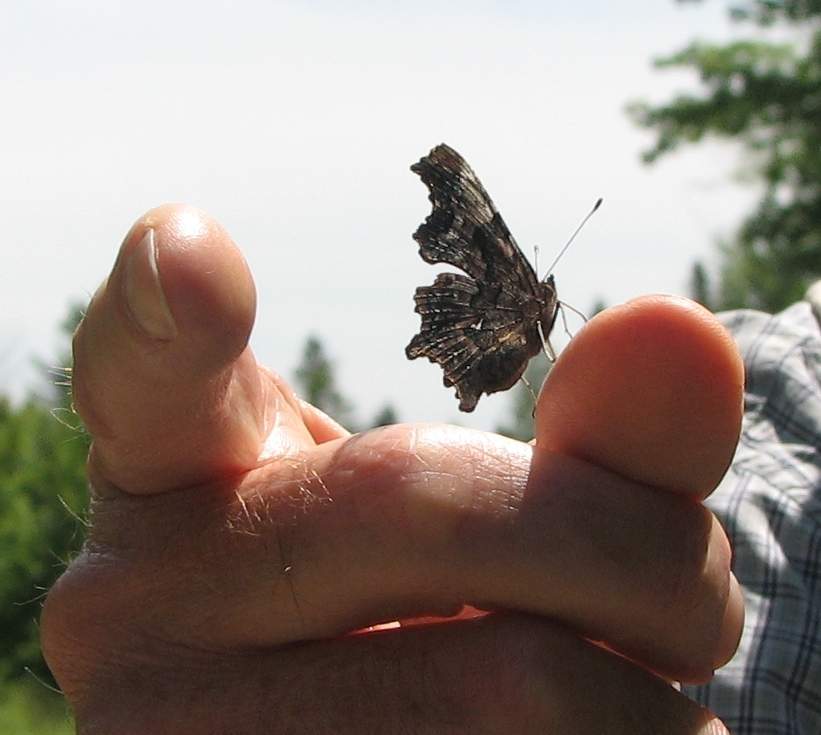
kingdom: Animalia
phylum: Arthropoda
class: Insecta
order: Lepidoptera
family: Nymphalidae
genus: Polygonia
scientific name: Polygonia faunus
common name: Green comma
